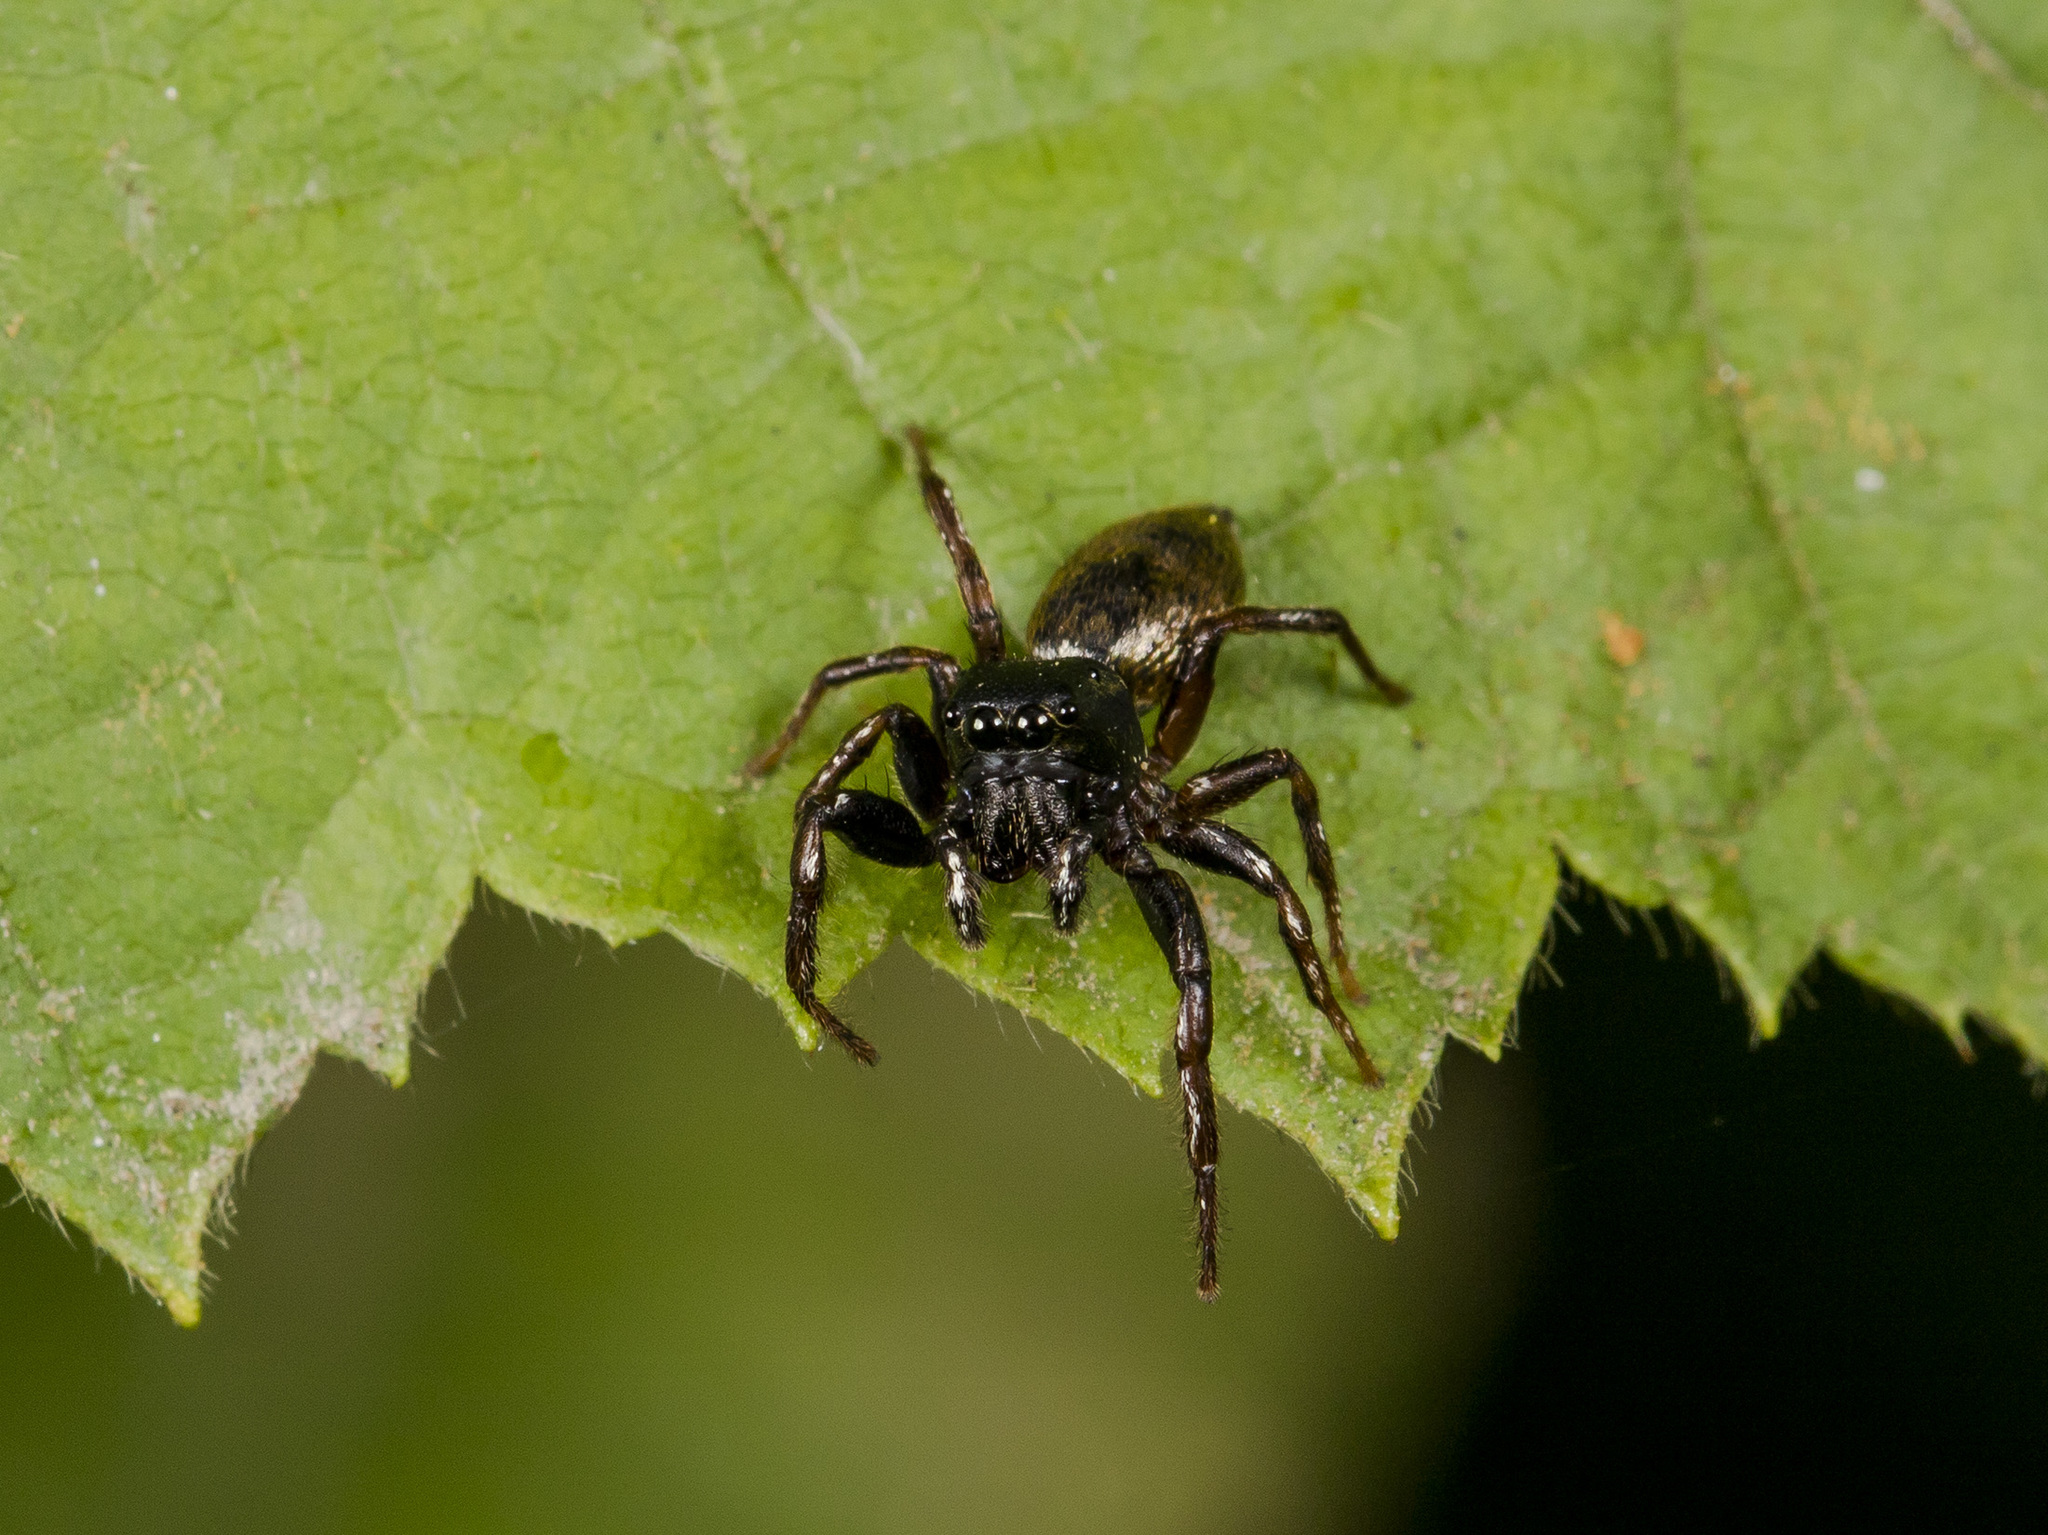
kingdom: Animalia
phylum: Arthropoda
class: Arachnida
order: Araneae
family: Salticidae
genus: Heliophanus
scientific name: Heliophanus auratus
